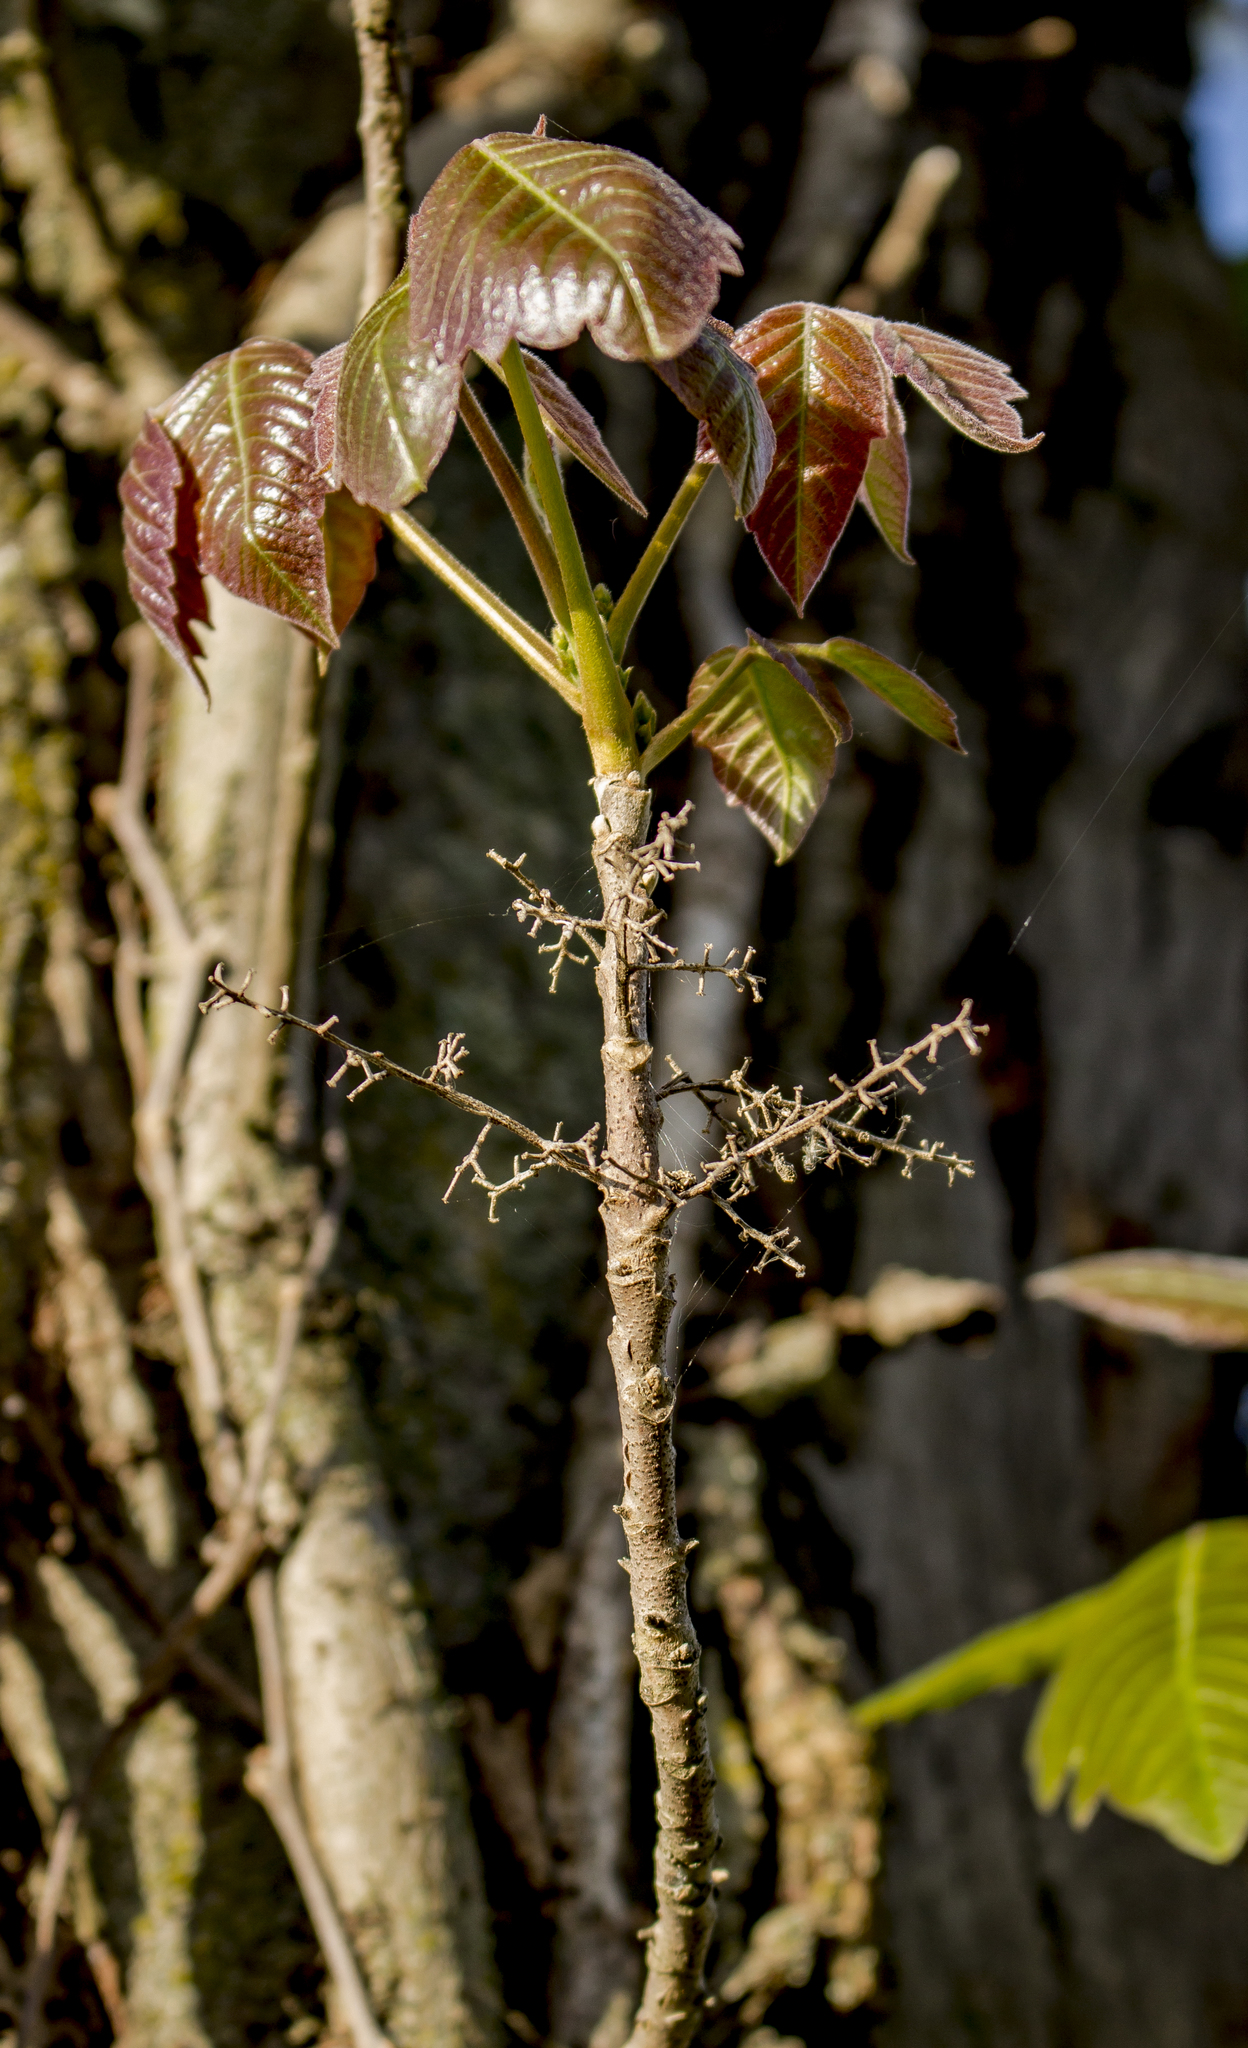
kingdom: Plantae
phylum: Tracheophyta
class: Magnoliopsida
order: Sapindales
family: Anacardiaceae
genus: Toxicodendron
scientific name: Toxicodendron radicans
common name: Poison ivy
